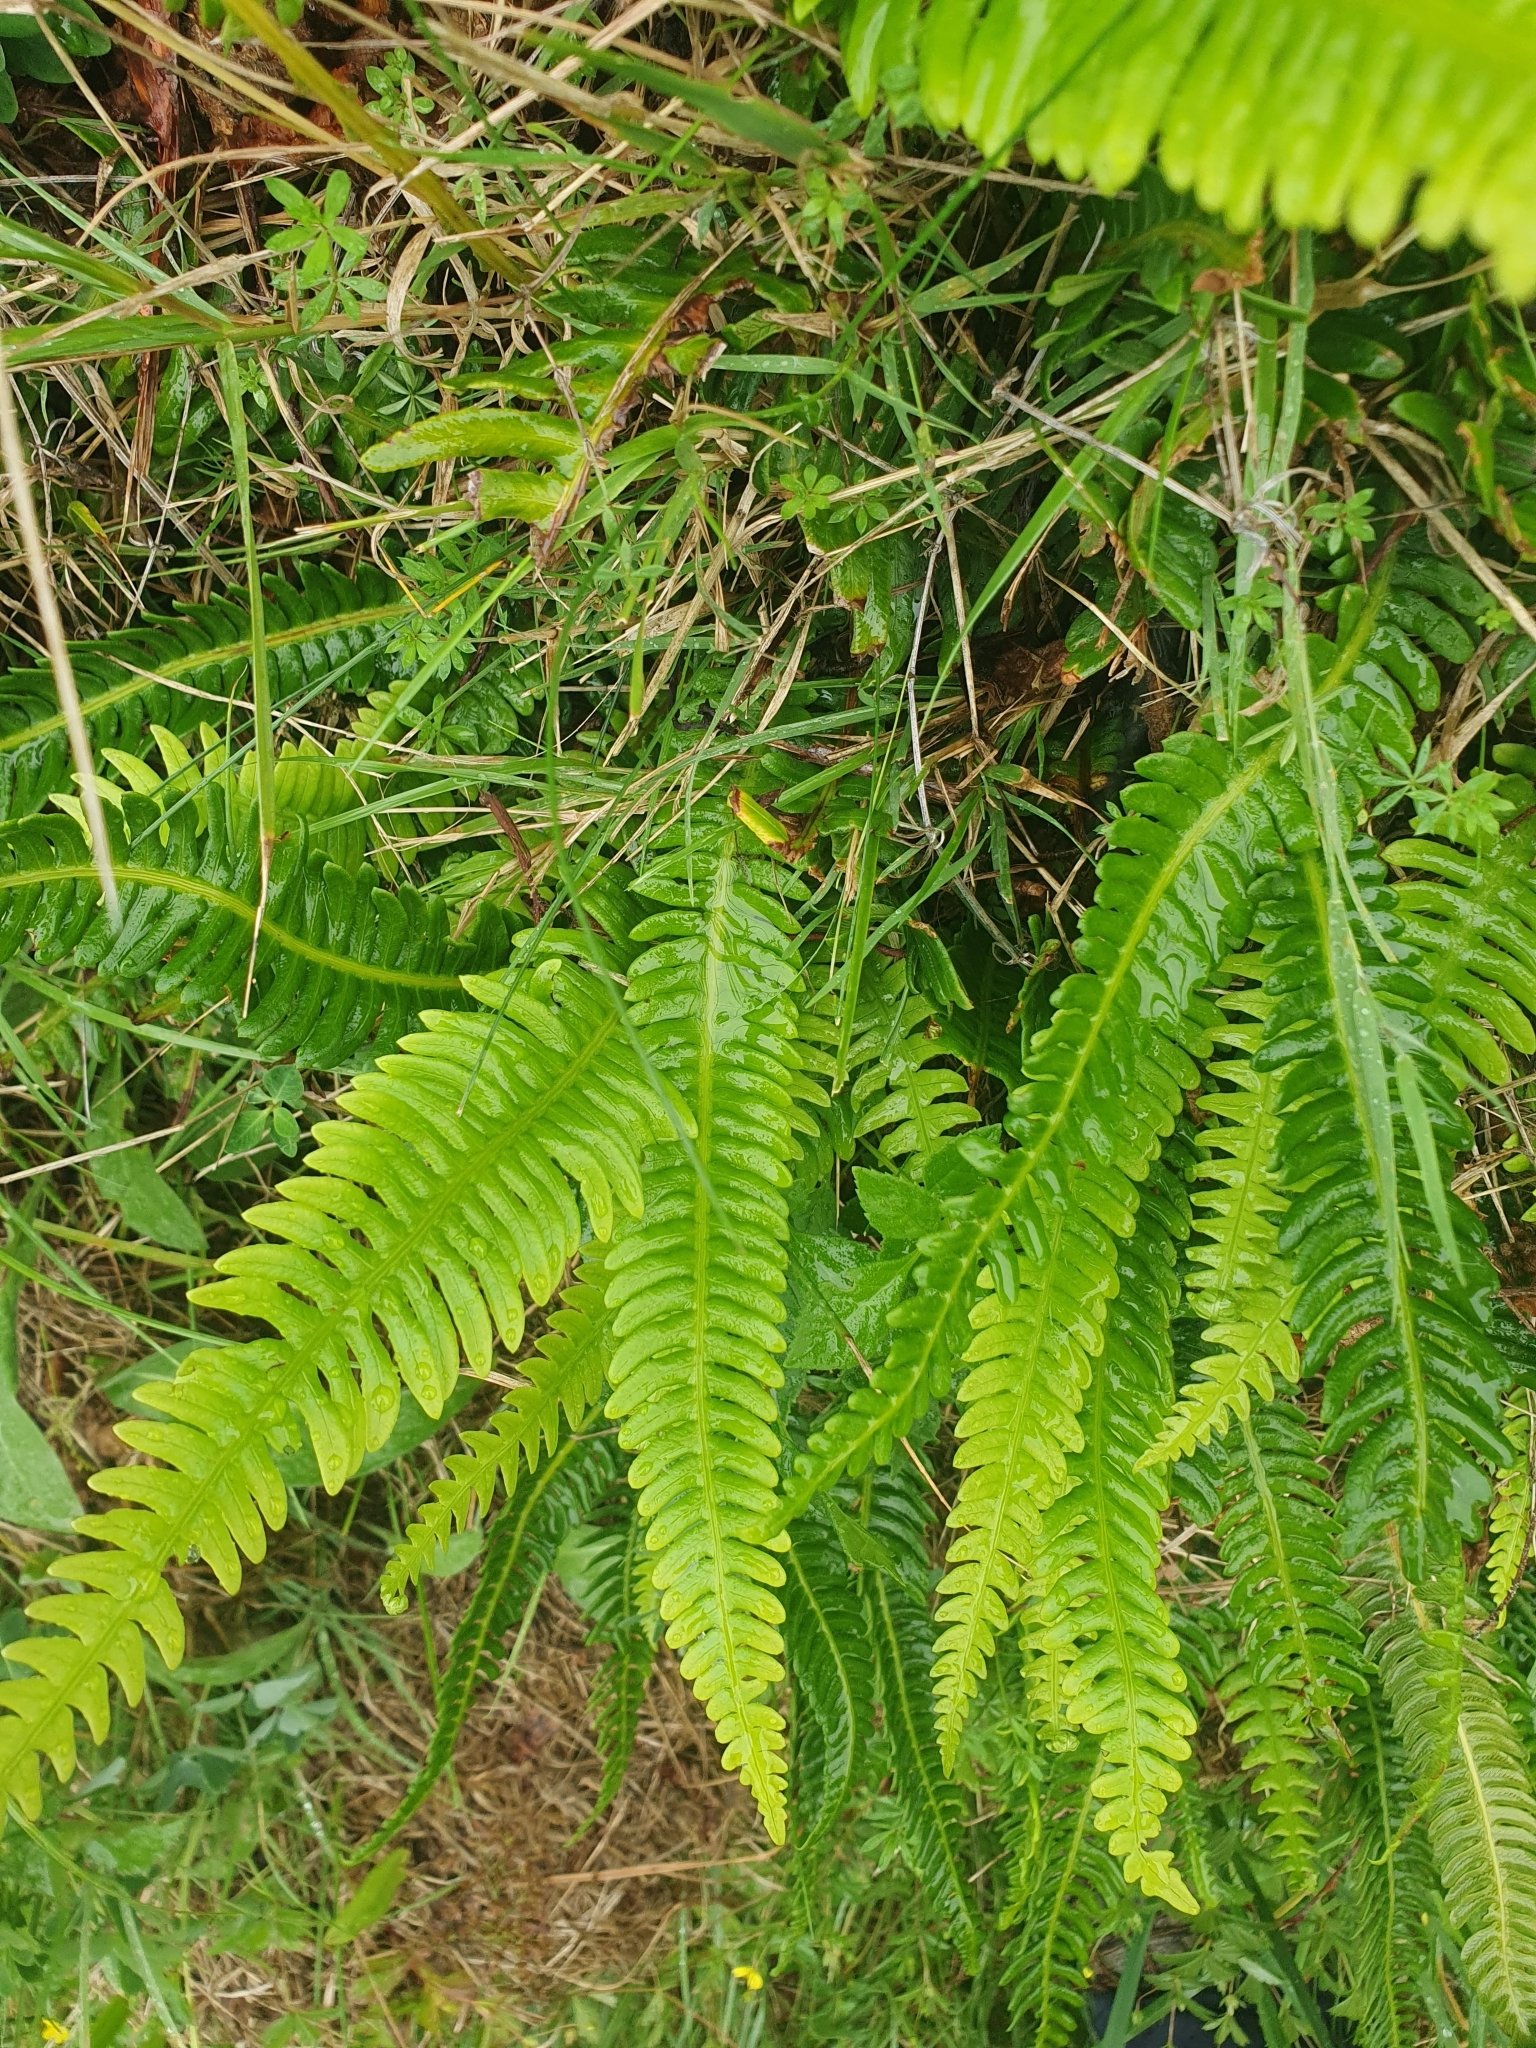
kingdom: Plantae
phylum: Tracheophyta
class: Polypodiopsida
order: Polypodiales
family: Blechnaceae
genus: Struthiopteris
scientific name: Struthiopteris spicant
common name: Deer fern
